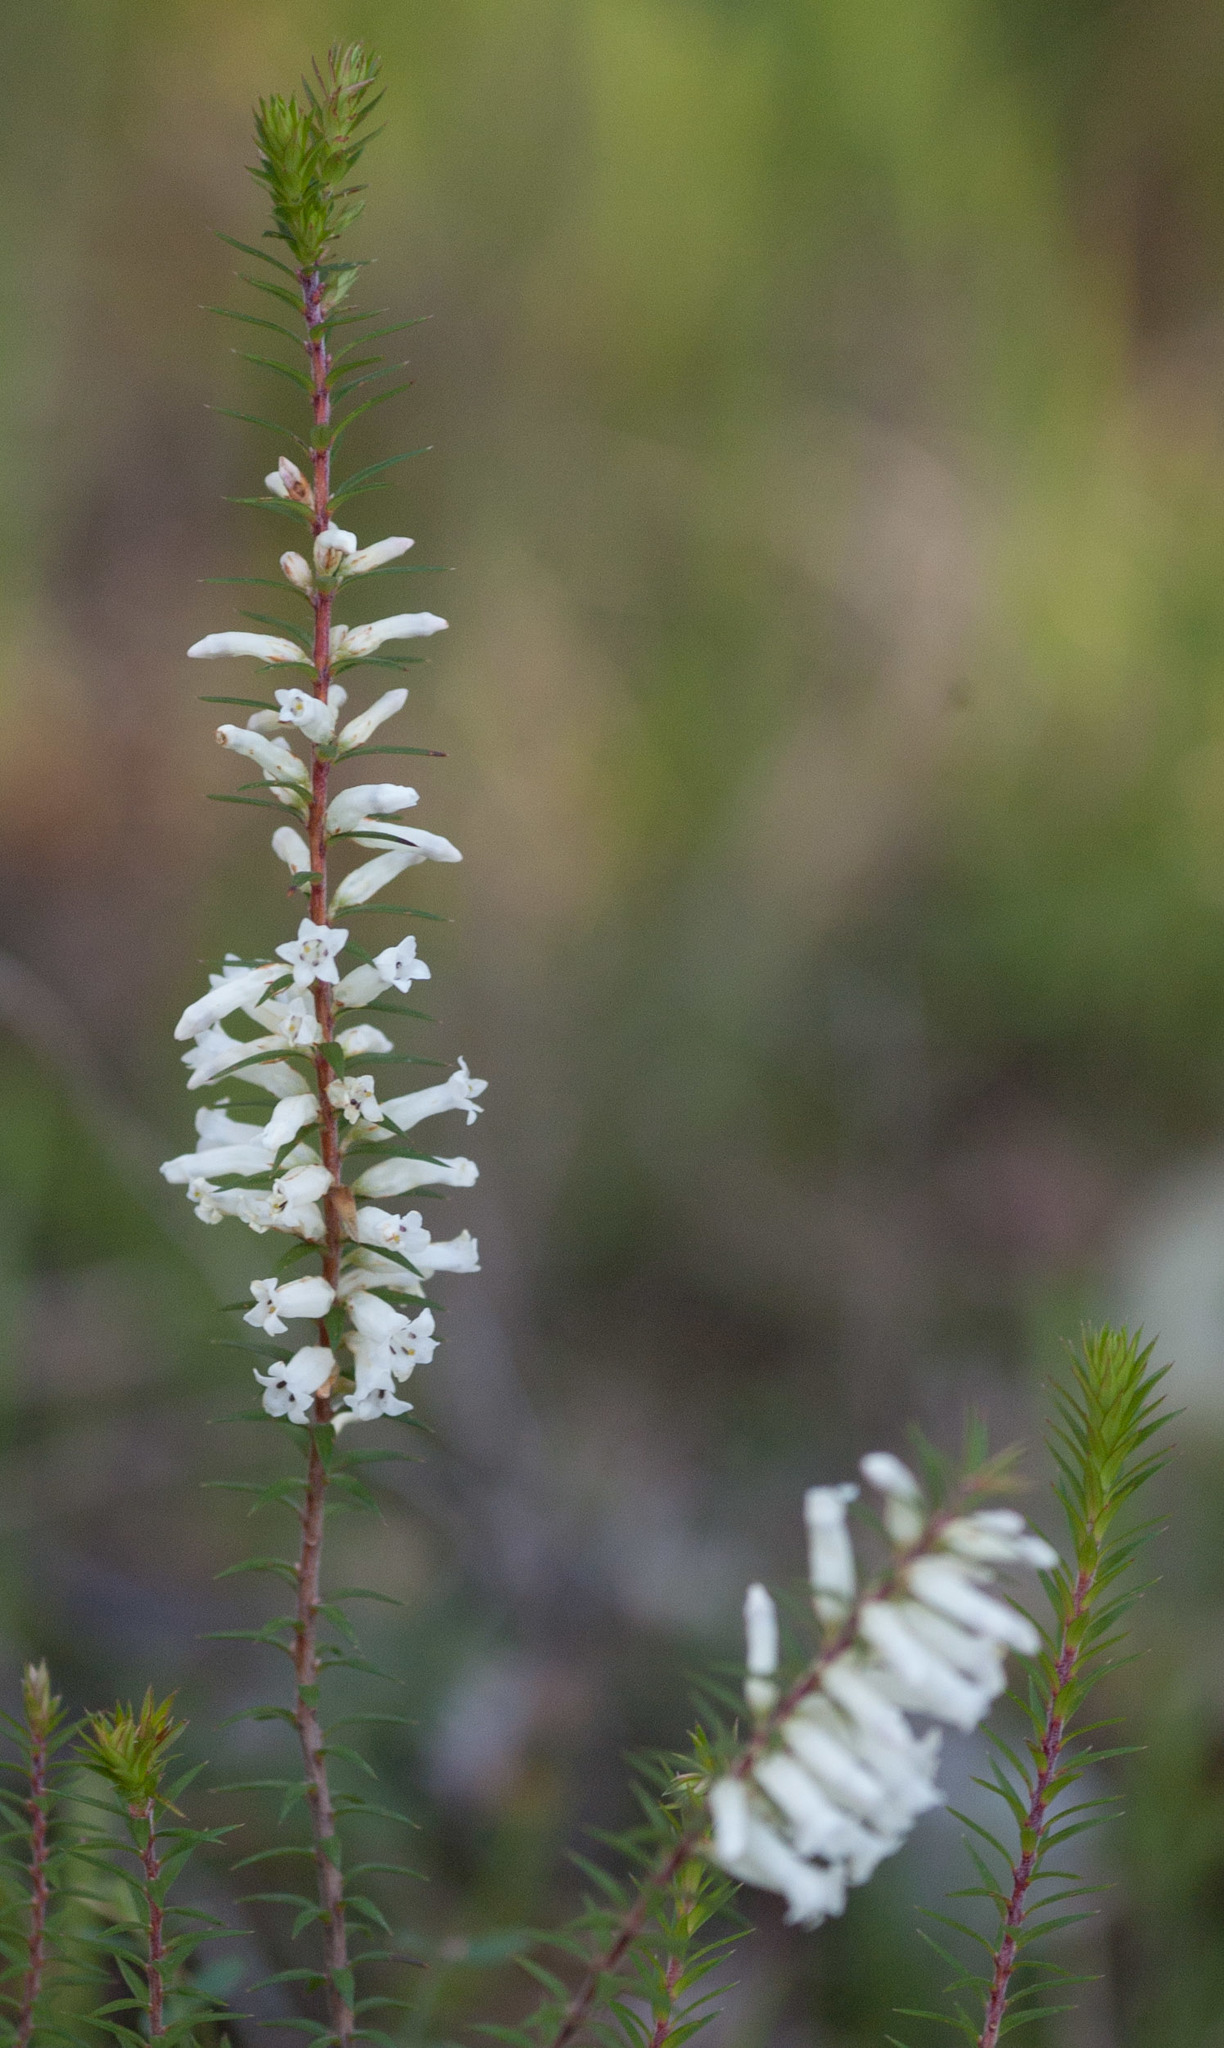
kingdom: Plantae
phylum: Tracheophyta
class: Magnoliopsida
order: Ericales
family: Ericaceae
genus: Epacris
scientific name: Epacris impressa
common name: Common-heath
